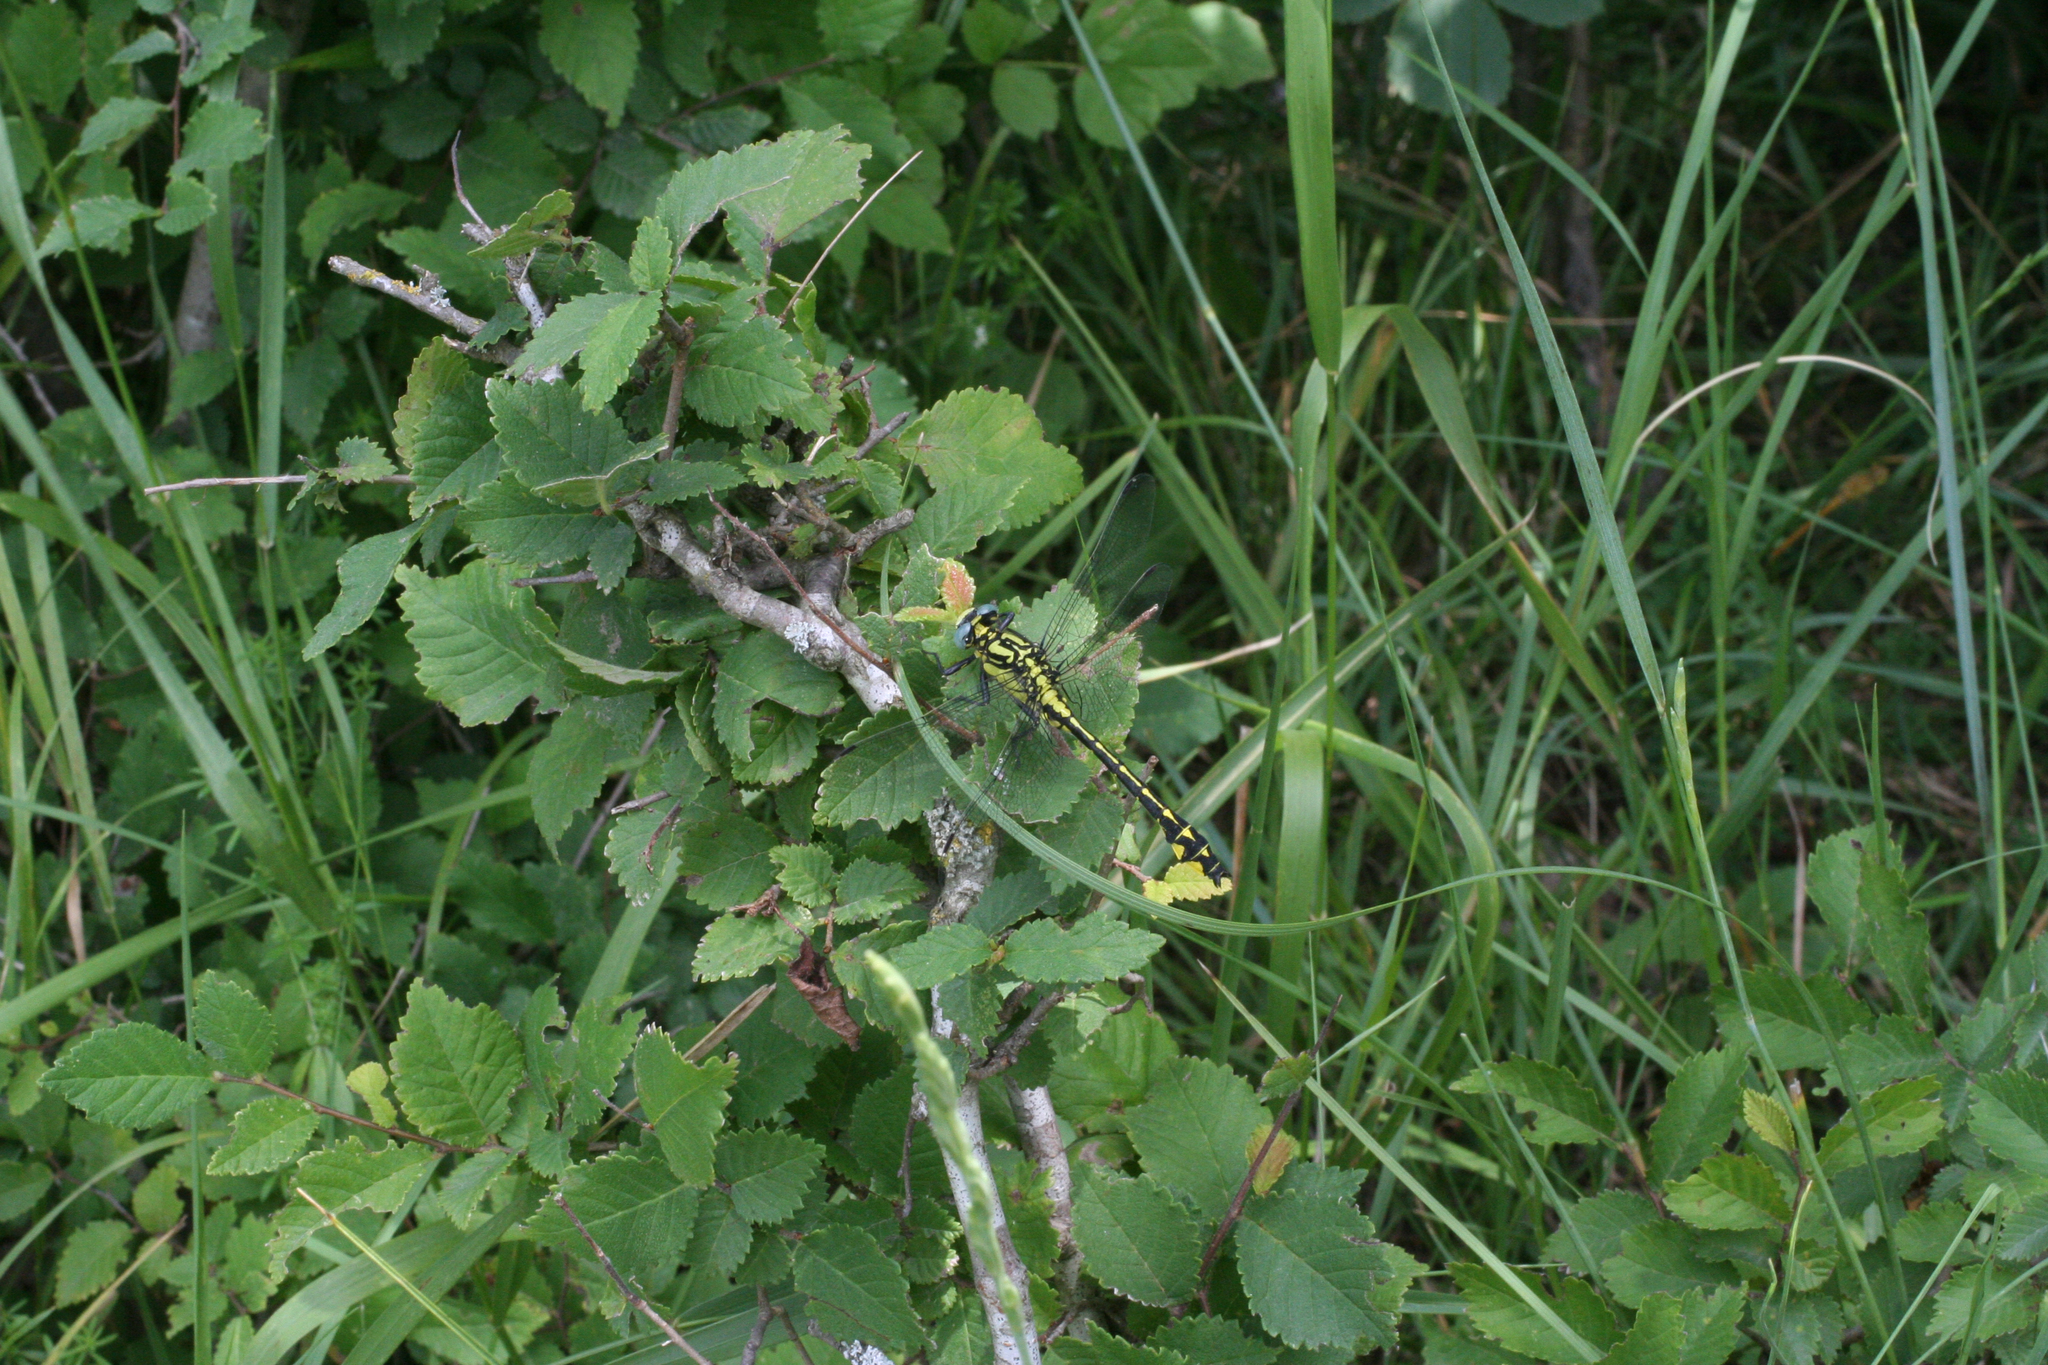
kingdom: Plantae
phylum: Tracheophyta
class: Magnoliopsida
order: Rosales
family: Ulmaceae
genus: Ulmus
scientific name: Ulmus minor
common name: Small-leaved elm
